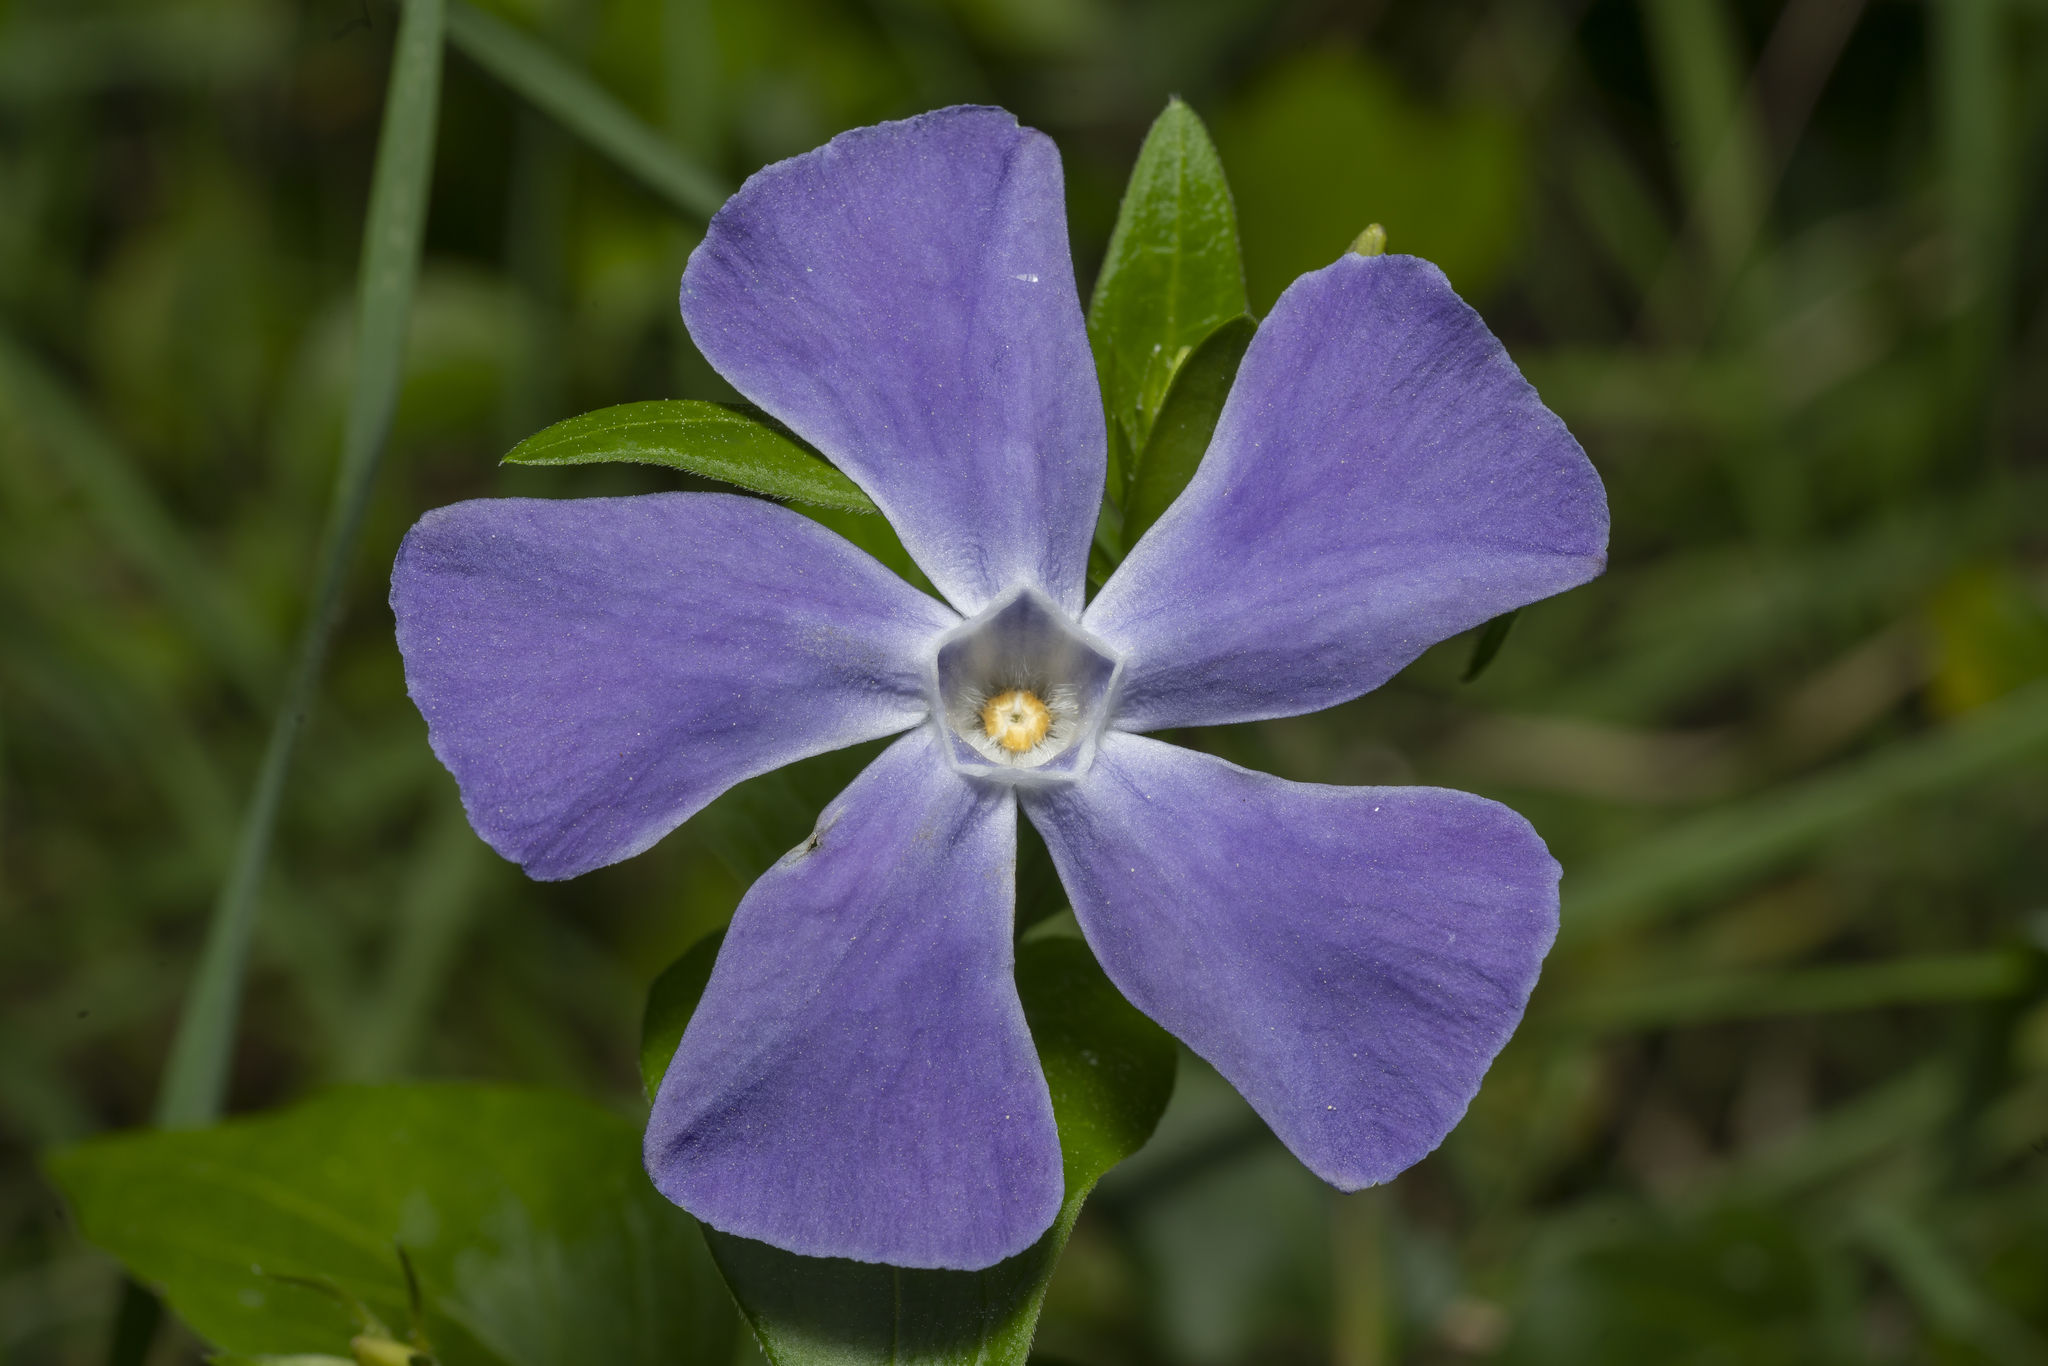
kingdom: Plantae
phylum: Tracheophyta
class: Magnoliopsida
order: Gentianales
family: Apocynaceae
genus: Vinca
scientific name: Vinca major
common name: Greater periwinkle
